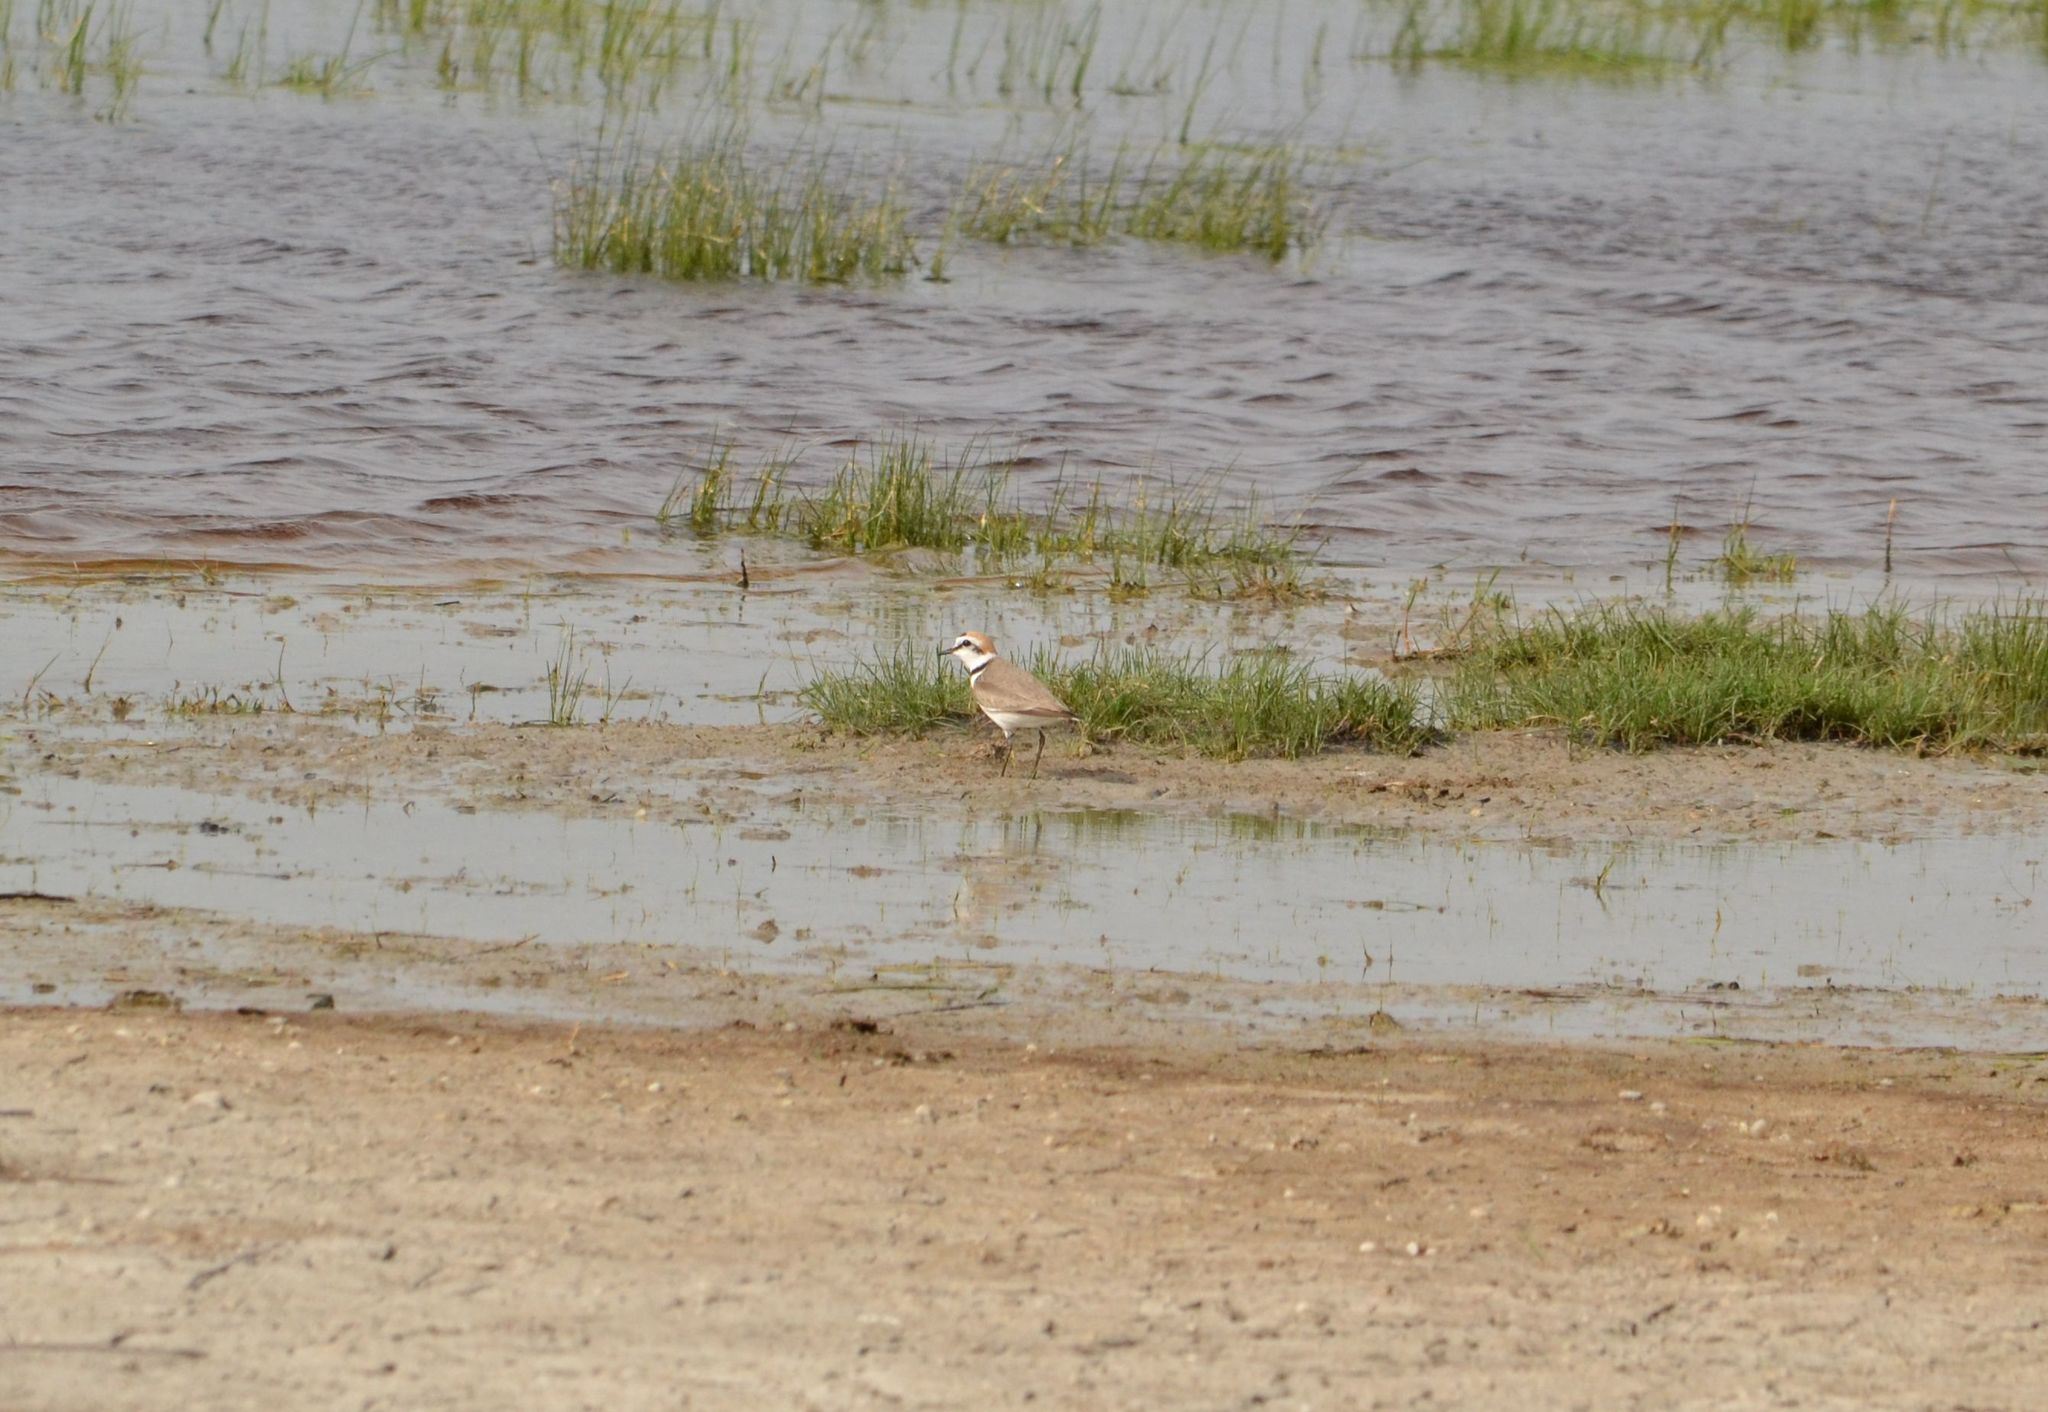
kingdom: Animalia
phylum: Chordata
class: Aves
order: Charadriiformes
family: Charadriidae
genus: Charadrius
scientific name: Charadrius alexandrinus
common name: Kentish plover
